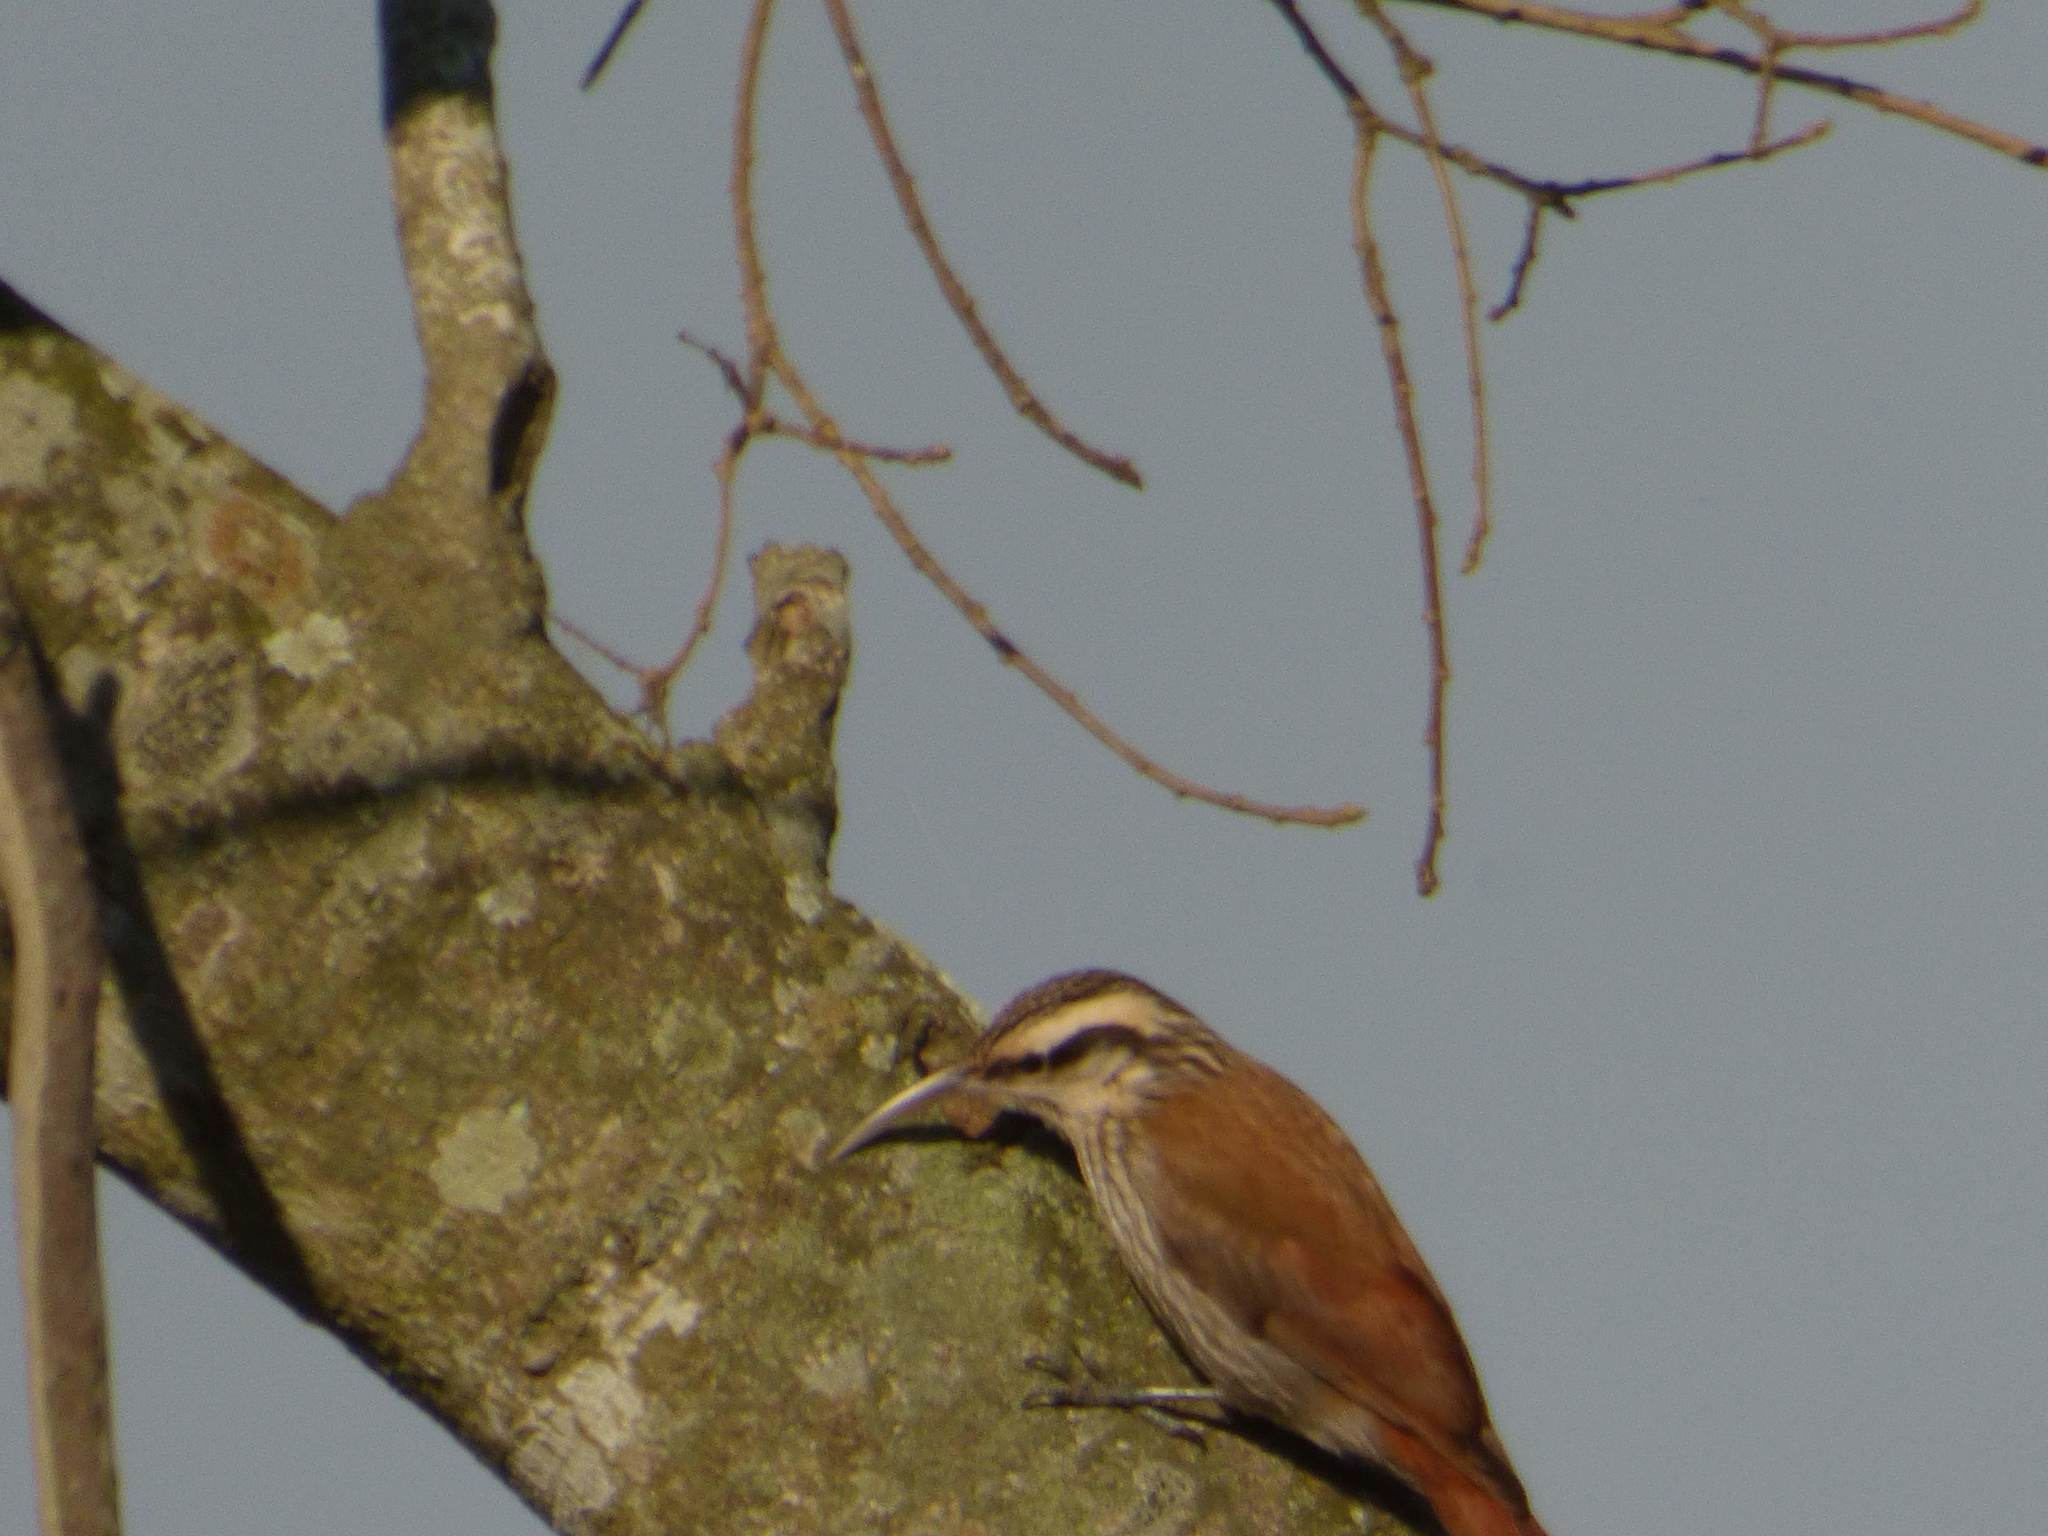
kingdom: Animalia
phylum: Chordata
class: Aves
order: Passeriformes
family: Furnariidae
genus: Lepidocolaptes
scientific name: Lepidocolaptes angustirostris
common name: Narrow-billed woodcreeper
